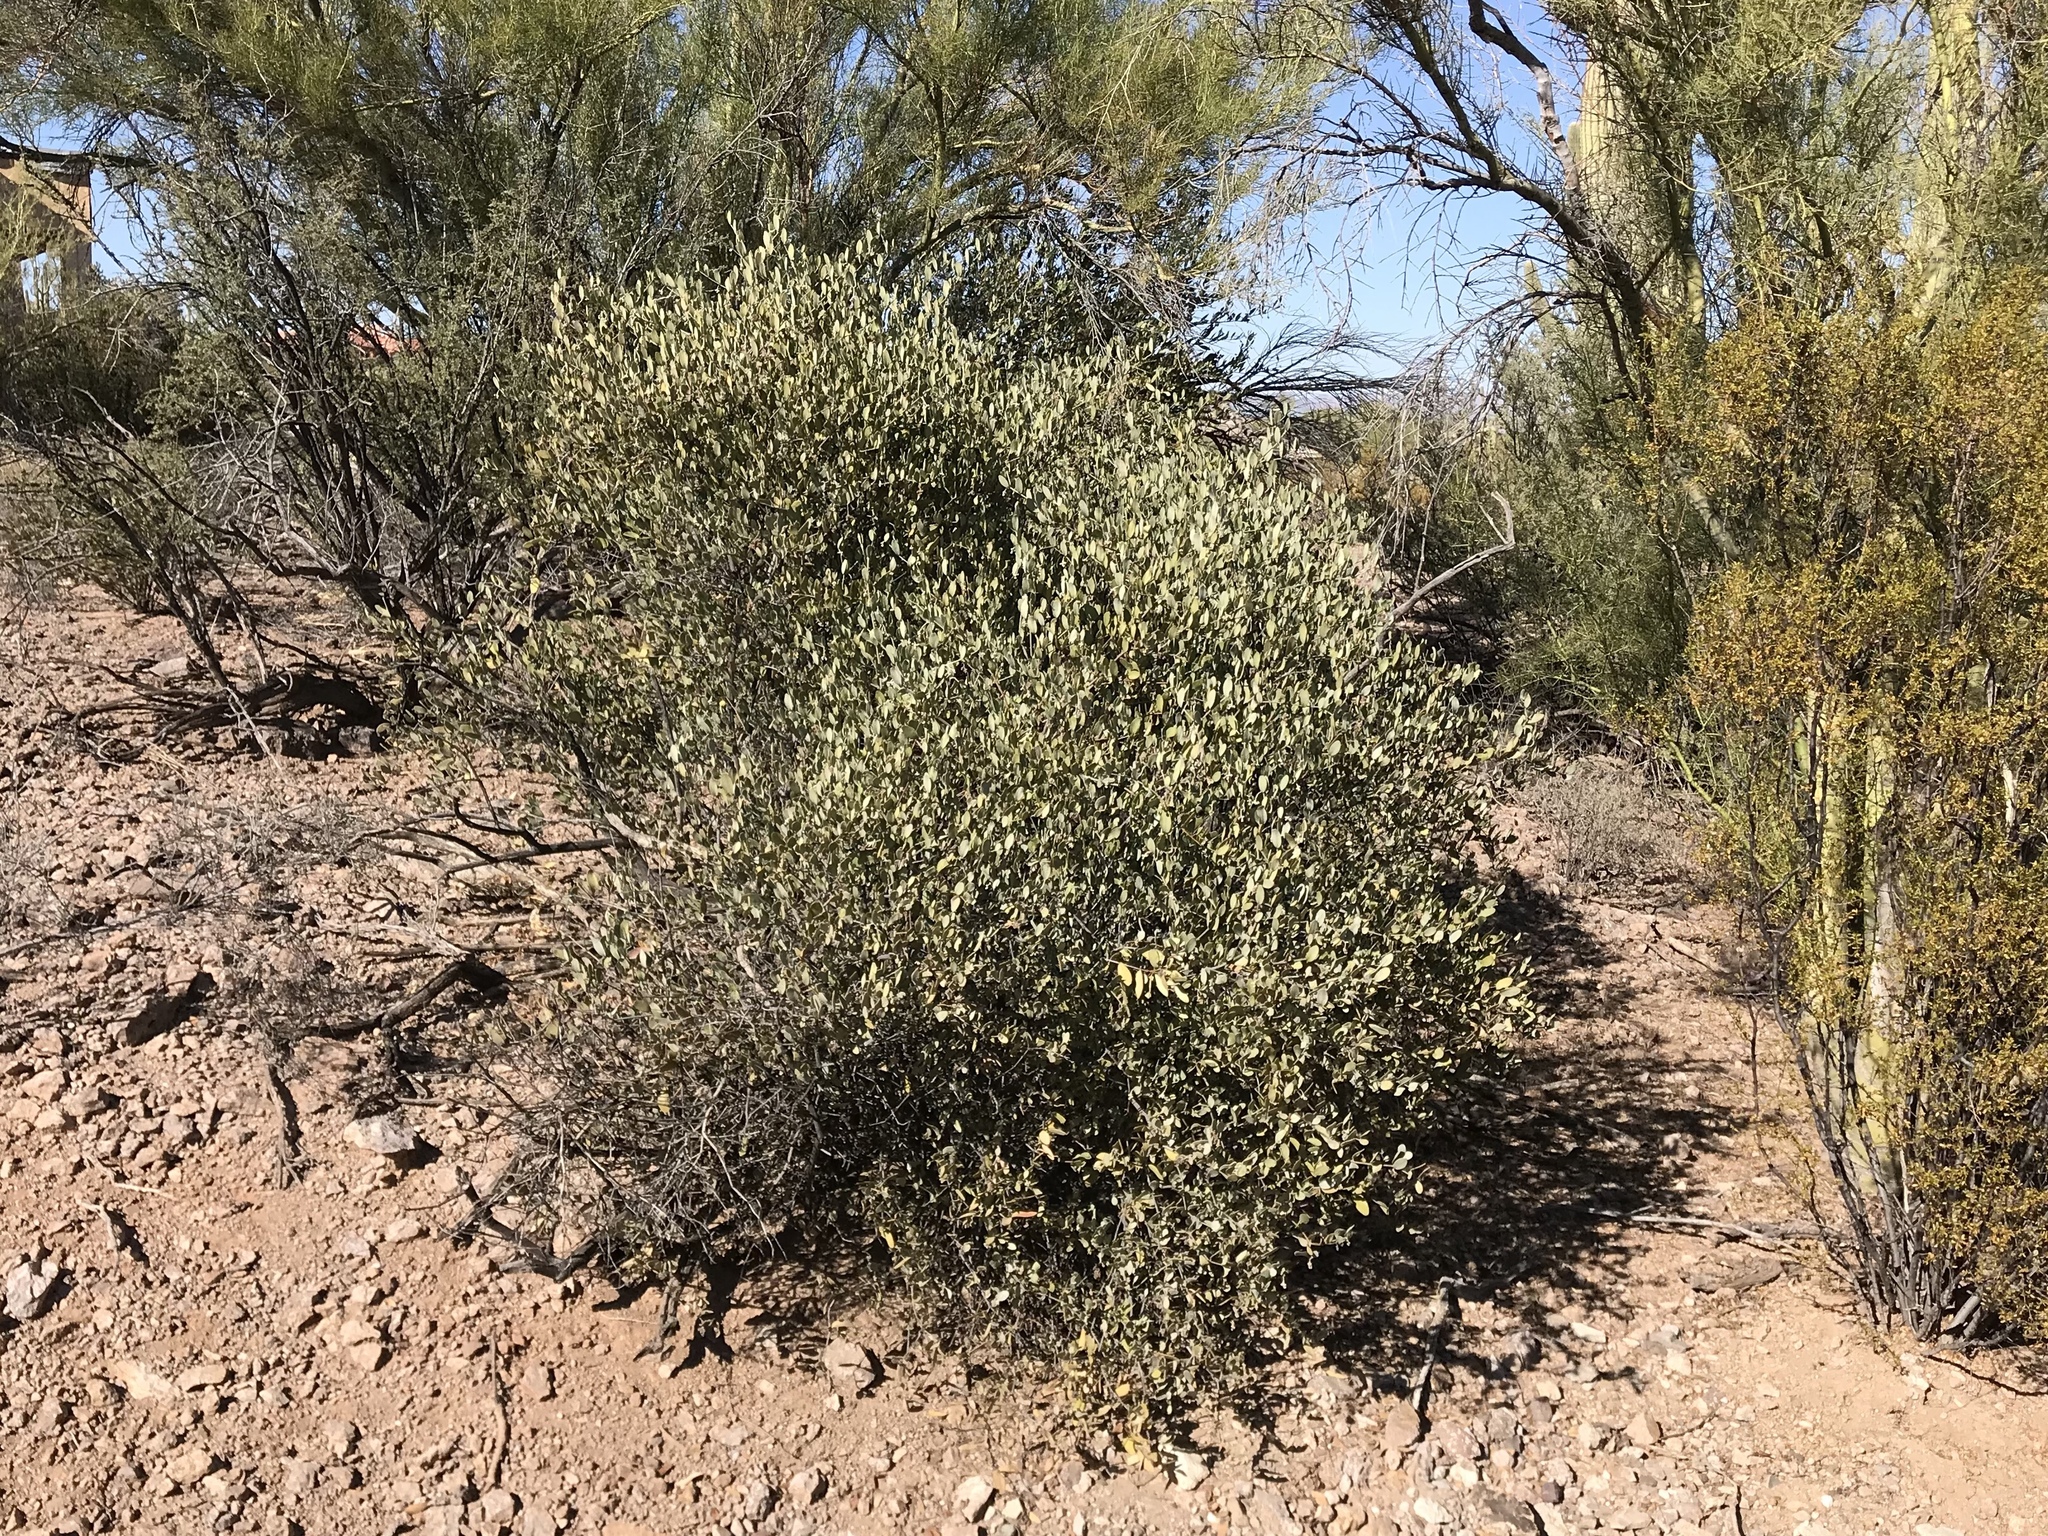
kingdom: Plantae
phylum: Tracheophyta
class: Magnoliopsida
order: Caryophyllales
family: Simmondsiaceae
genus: Simmondsia
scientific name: Simmondsia chinensis
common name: Jojoba
